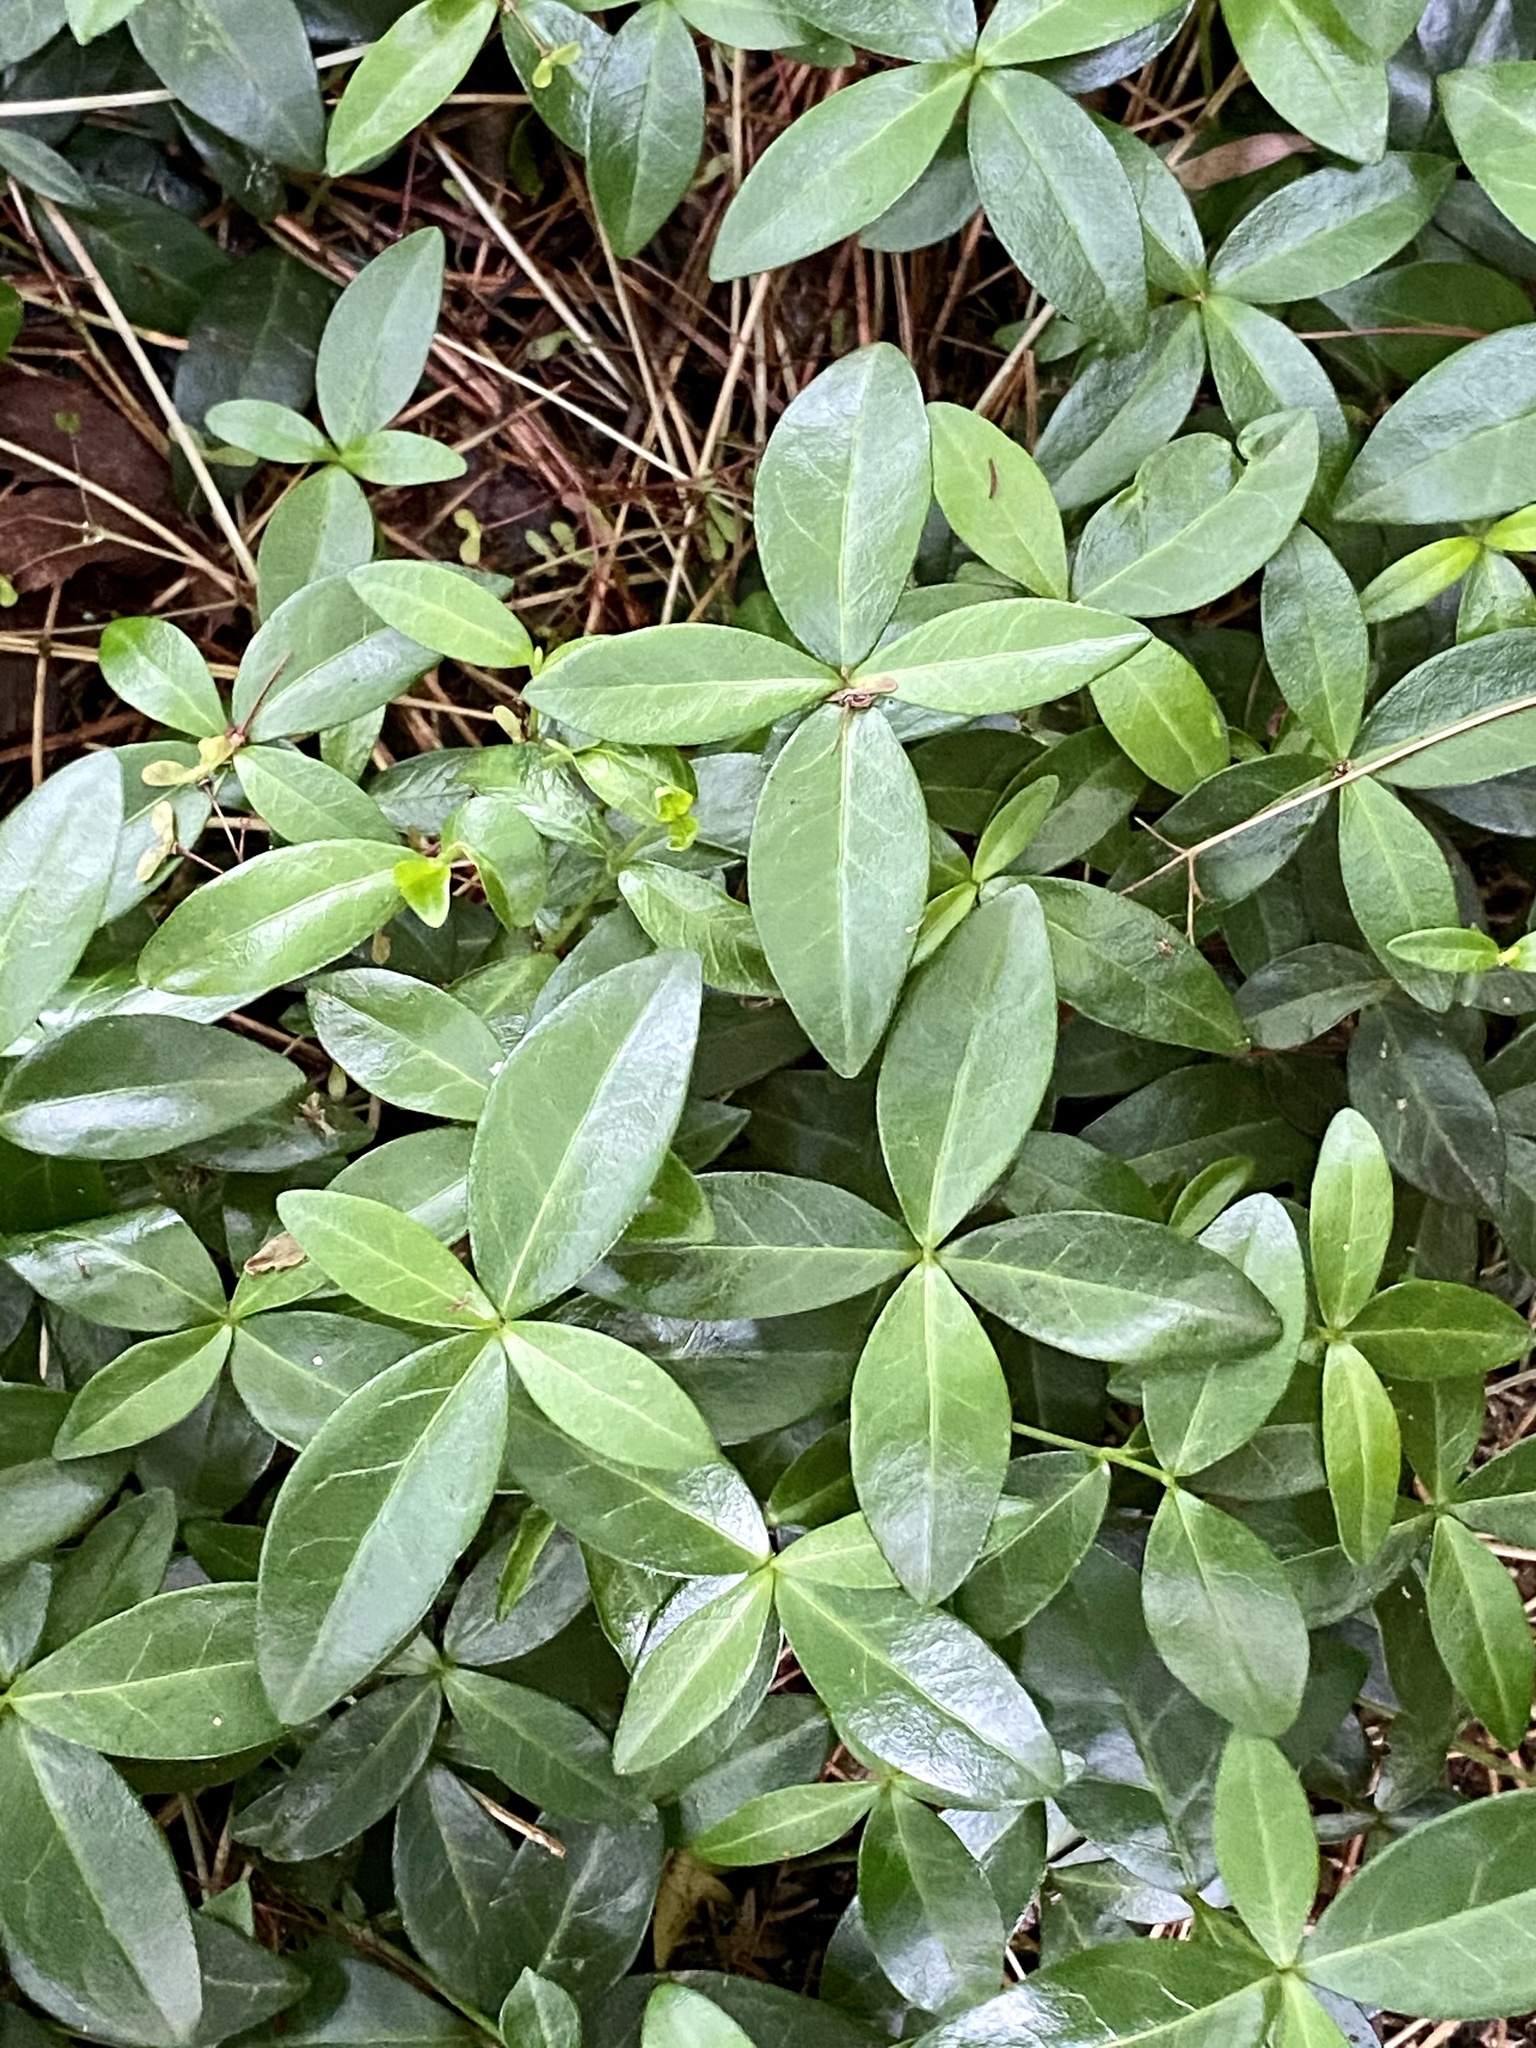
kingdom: Plantae
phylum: Tracheophyta
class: Magnoliopsida
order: Gentianales
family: Apocynaceae
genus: Vinca
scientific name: Vinca minor
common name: Lesser periwinkle
